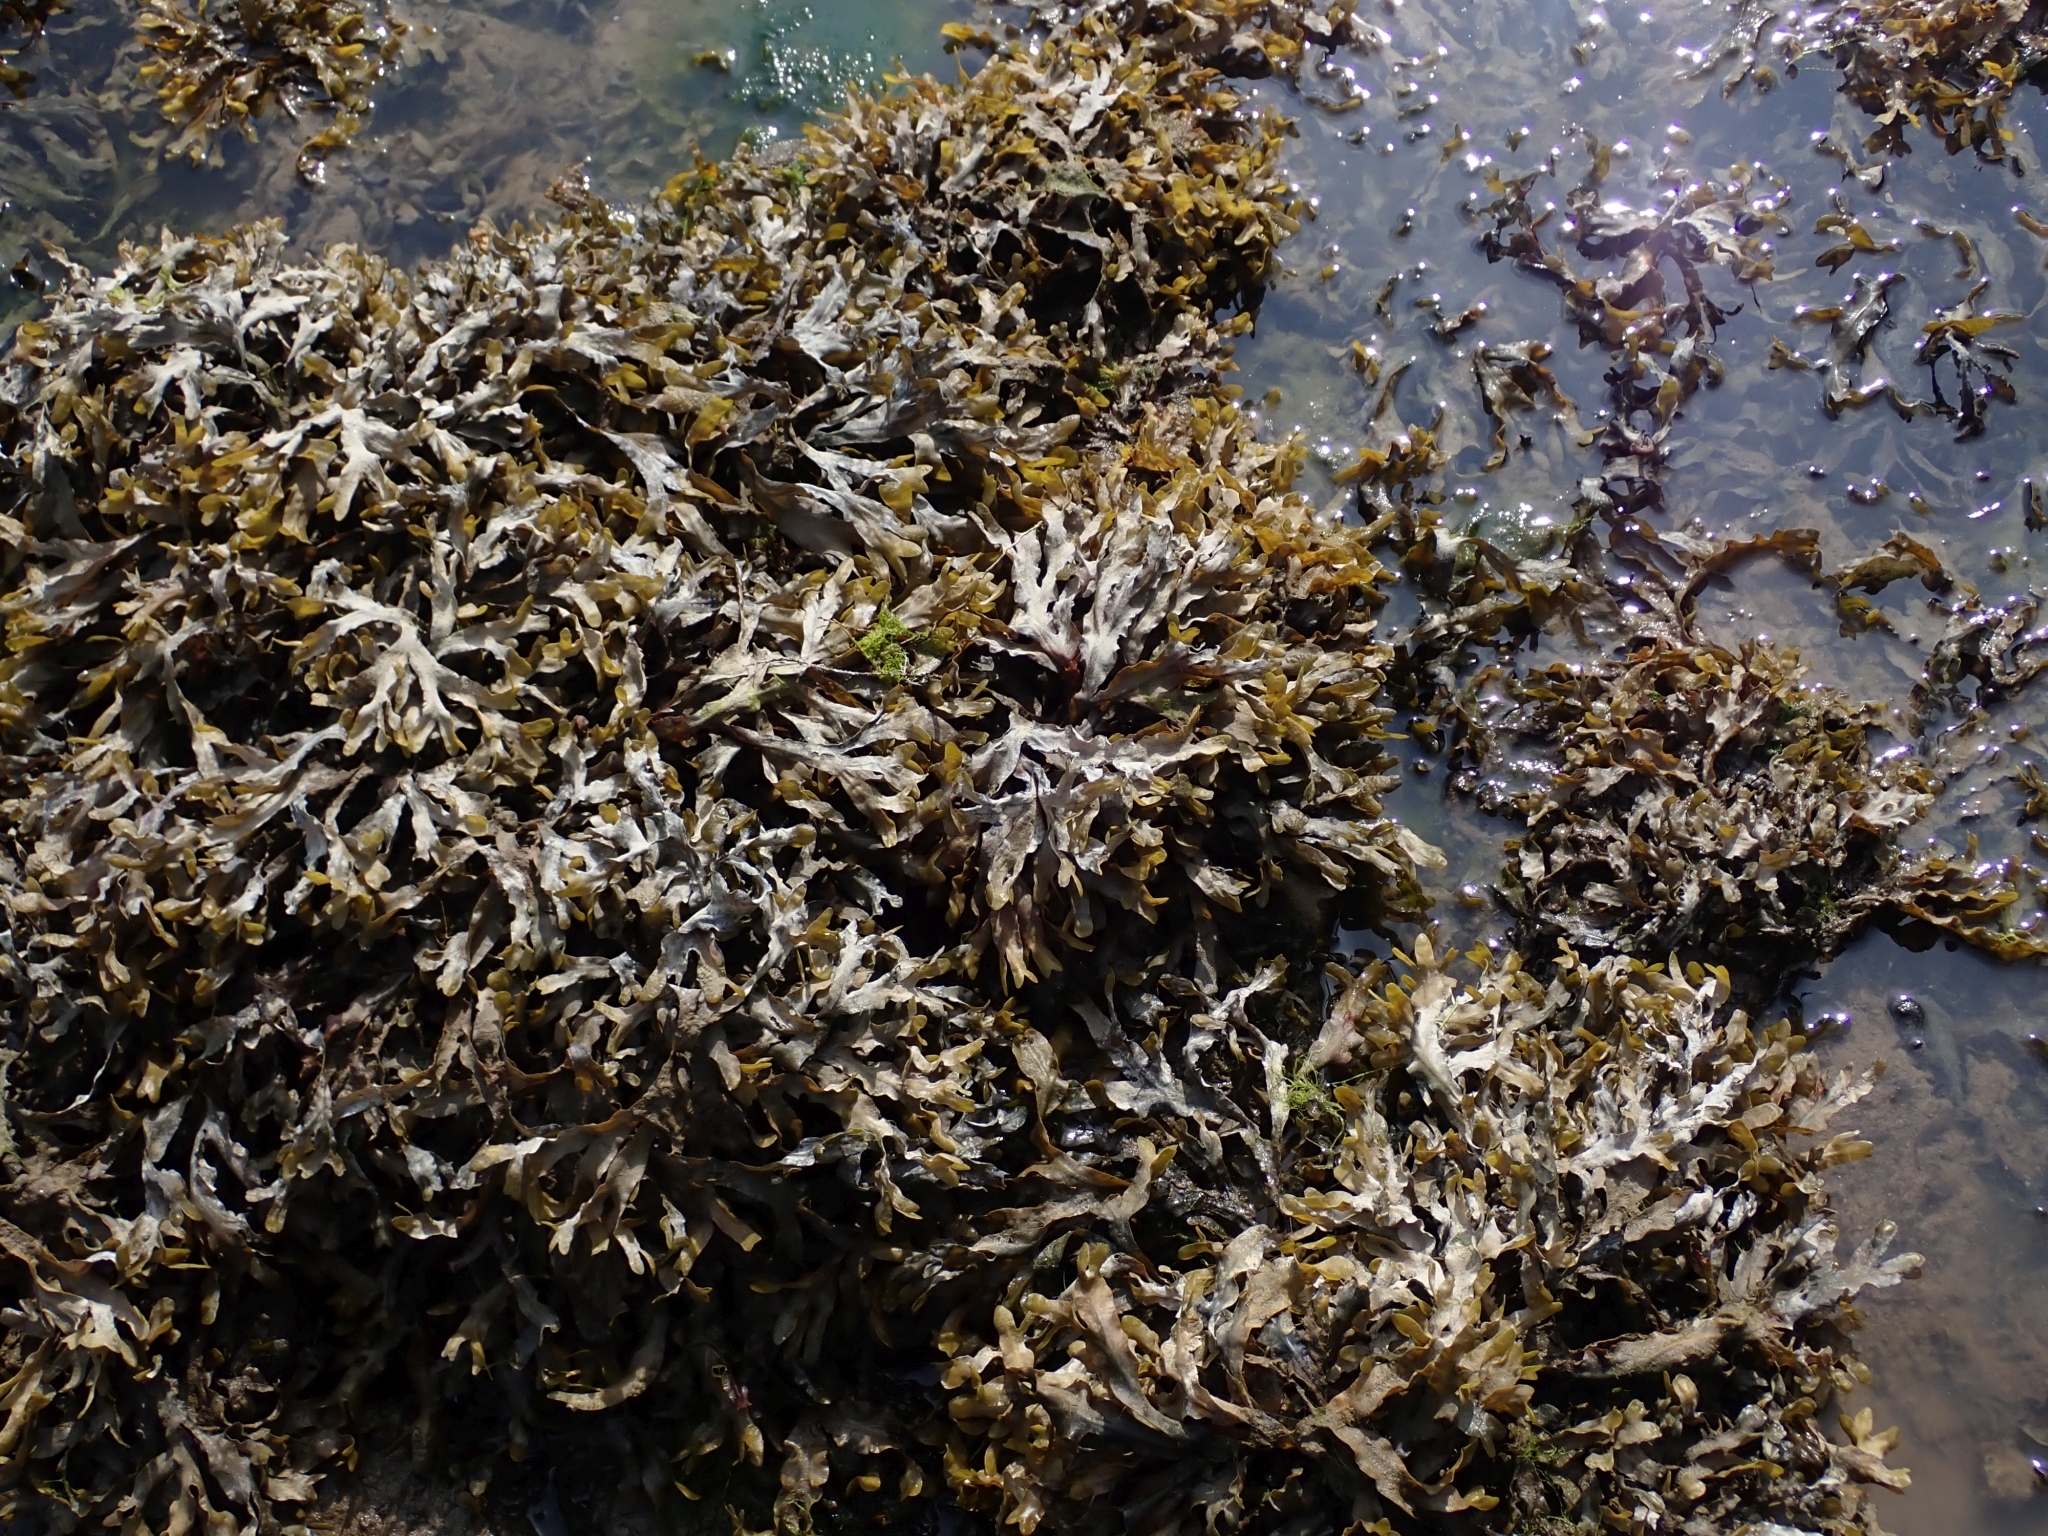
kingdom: Chromista
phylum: Ochrophyta
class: Phaeophyceae
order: Fucales
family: Fucaceae
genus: Fucus
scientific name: Fucus distichus
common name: Rockweed
